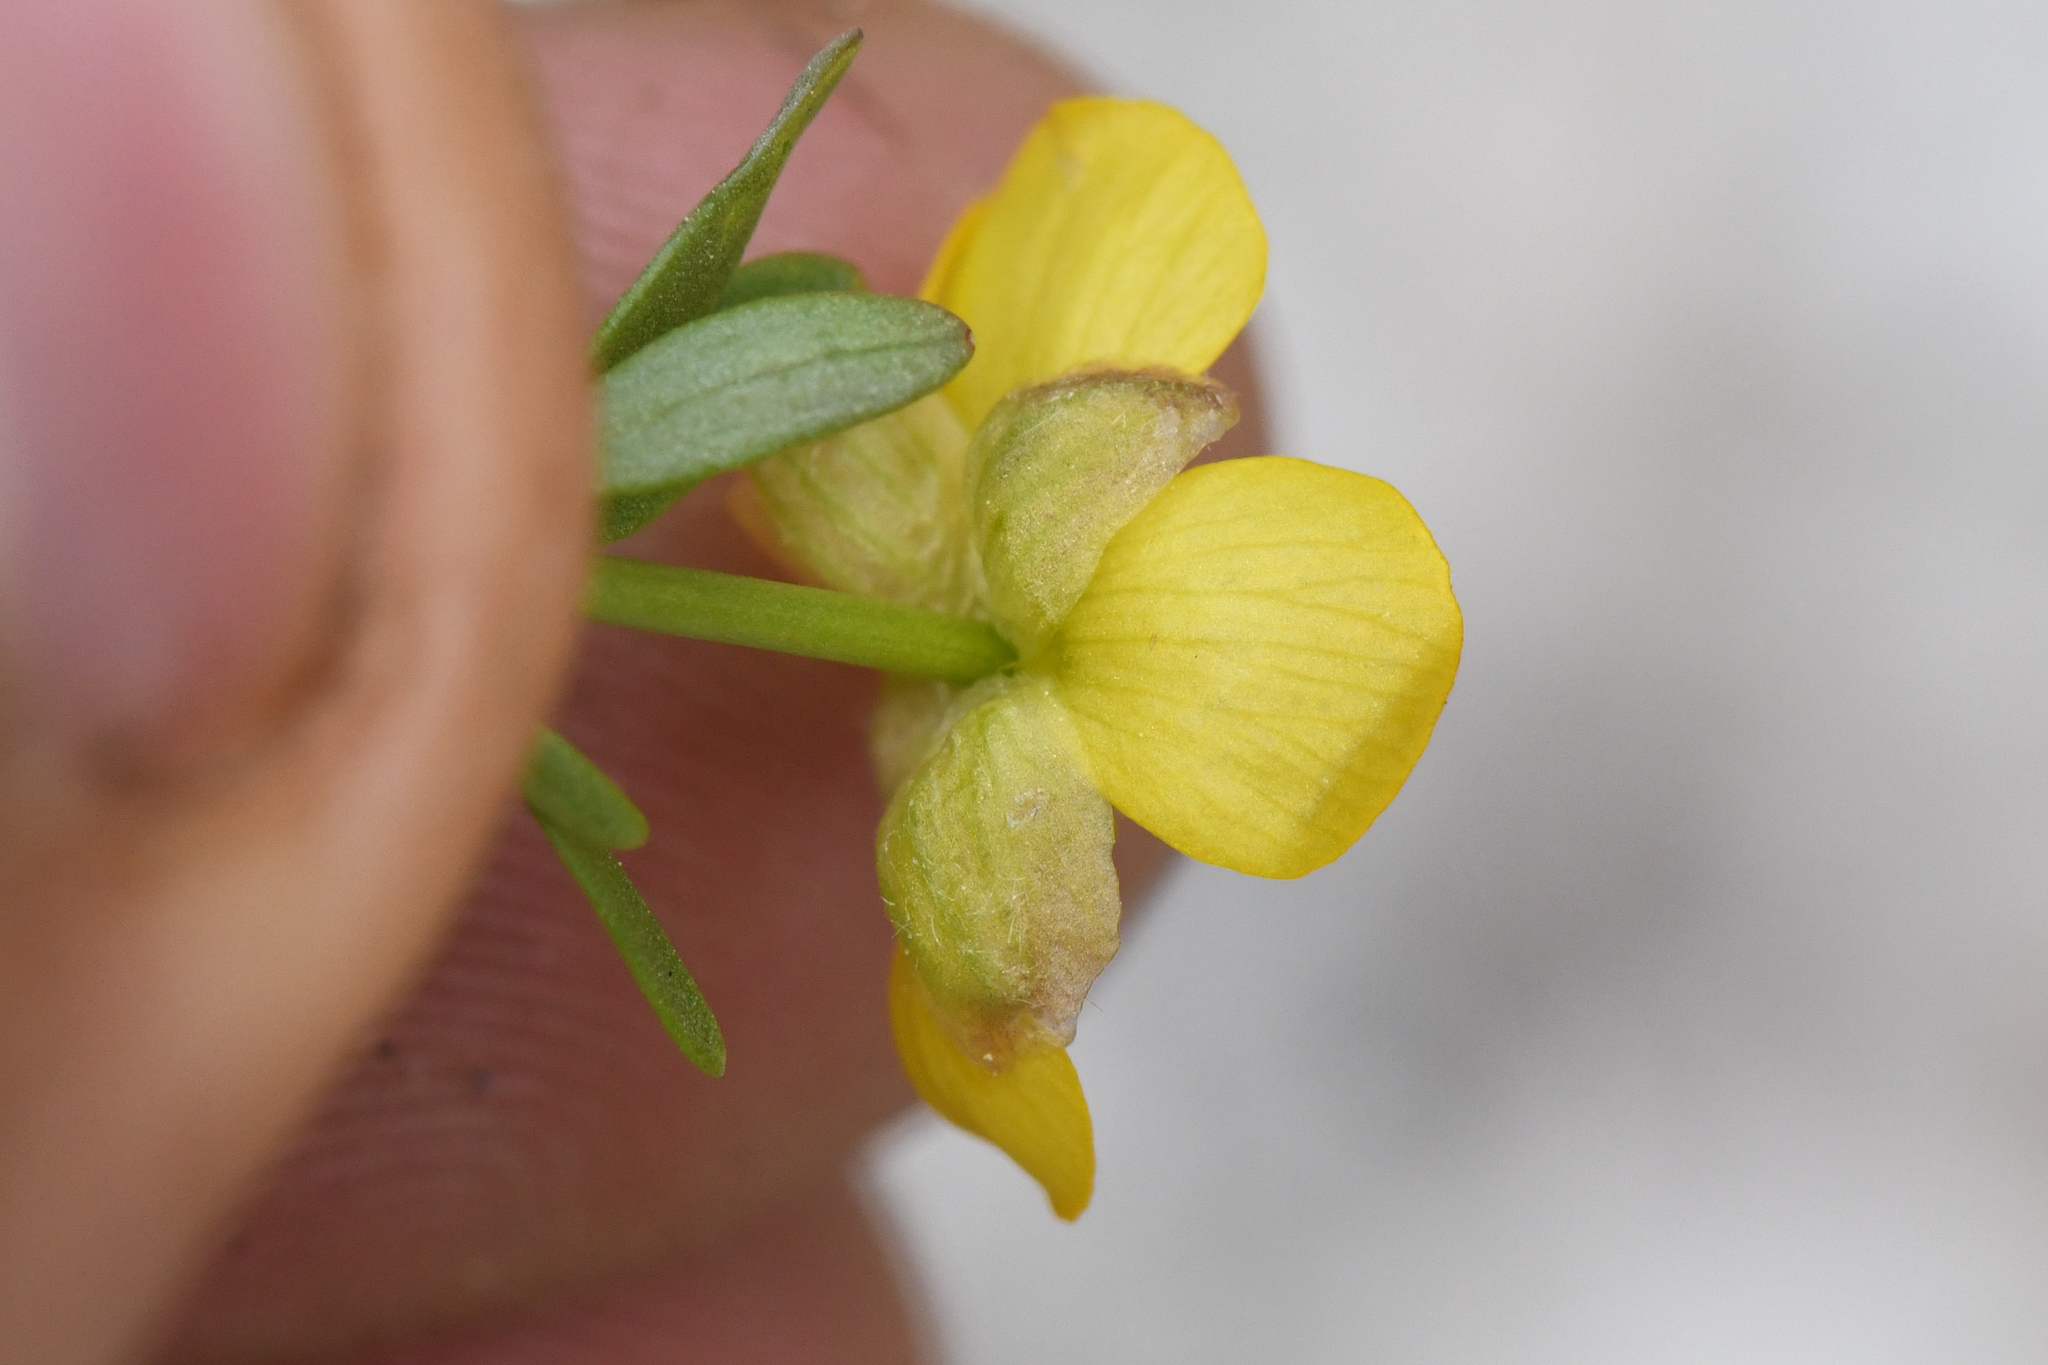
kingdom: Plantae
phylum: Tracheophyta
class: Magnoliopsida
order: Ranunculales
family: Ranunculaceae
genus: Ranunculus
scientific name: Ranunculus eschscholtzii
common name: Eschscholtz's buttercup
